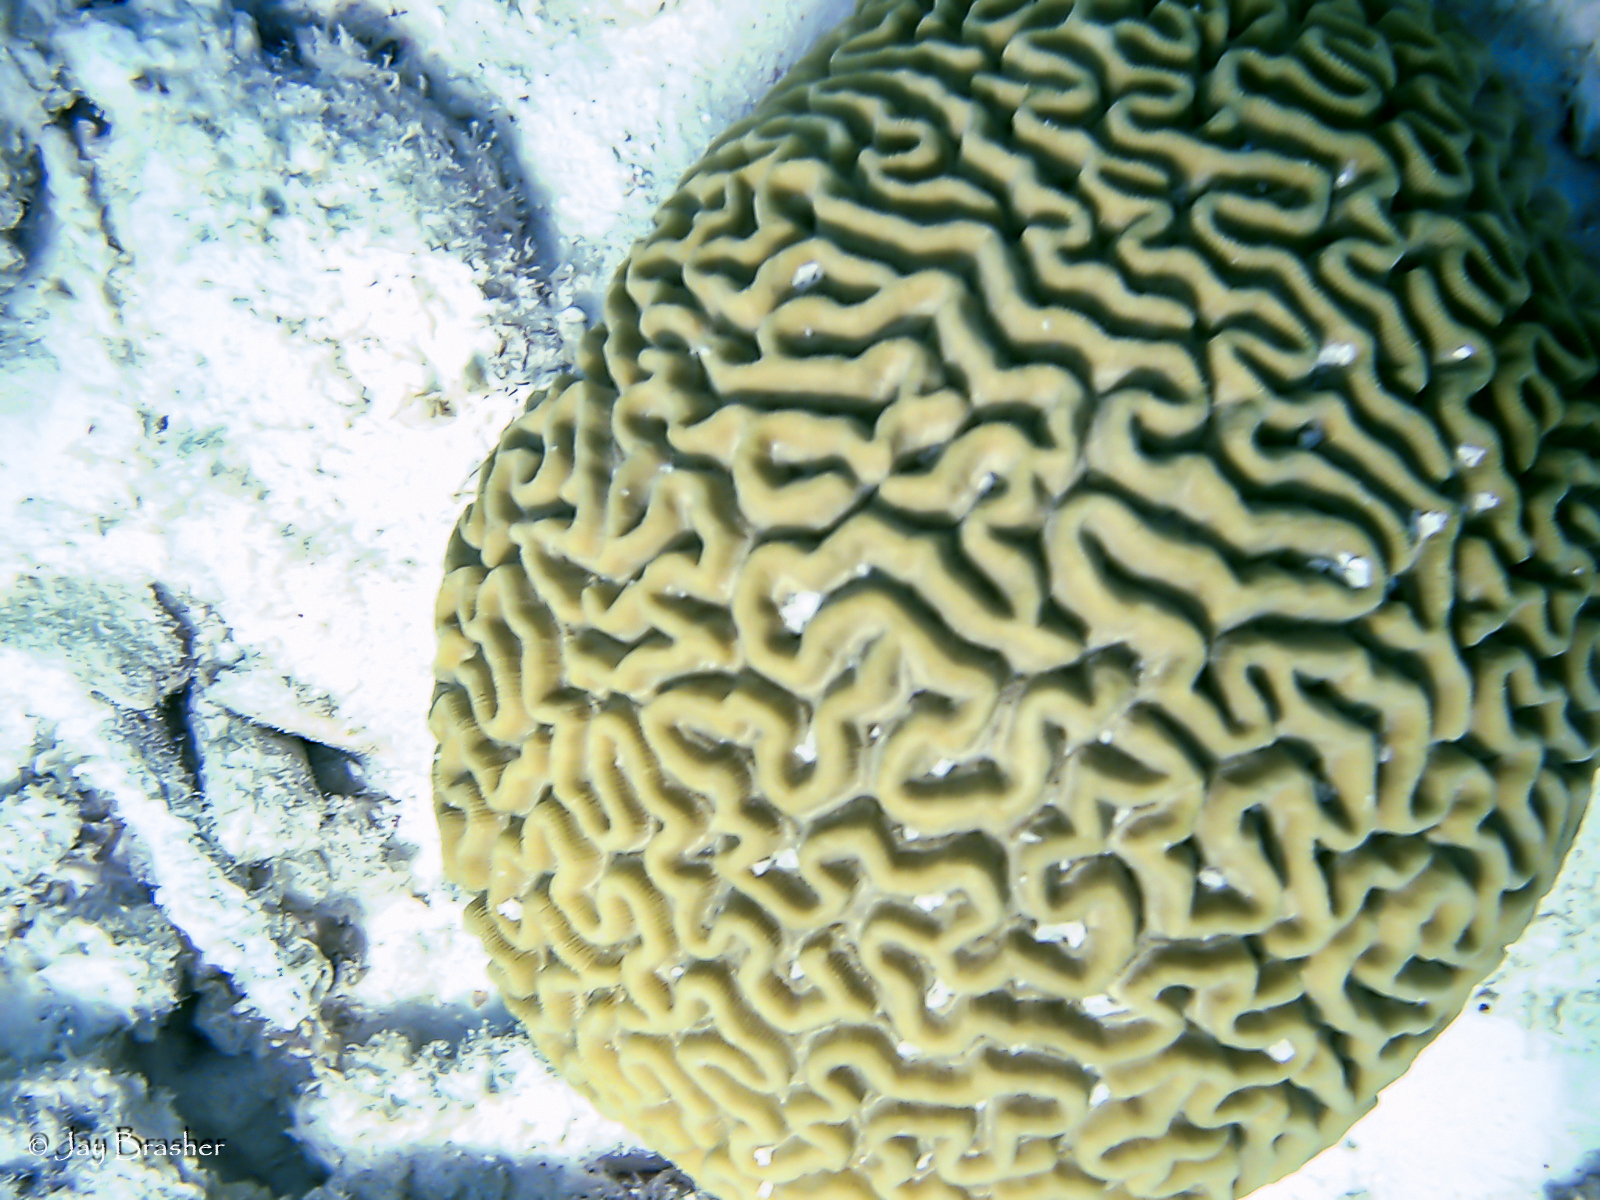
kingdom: Animalia
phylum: Cnidaria
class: Anthozoa
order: Scleractinia
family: Faviidae
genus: Pseudodiploria
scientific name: Pseudodiploria strigosa
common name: Symmetrical brain coral
